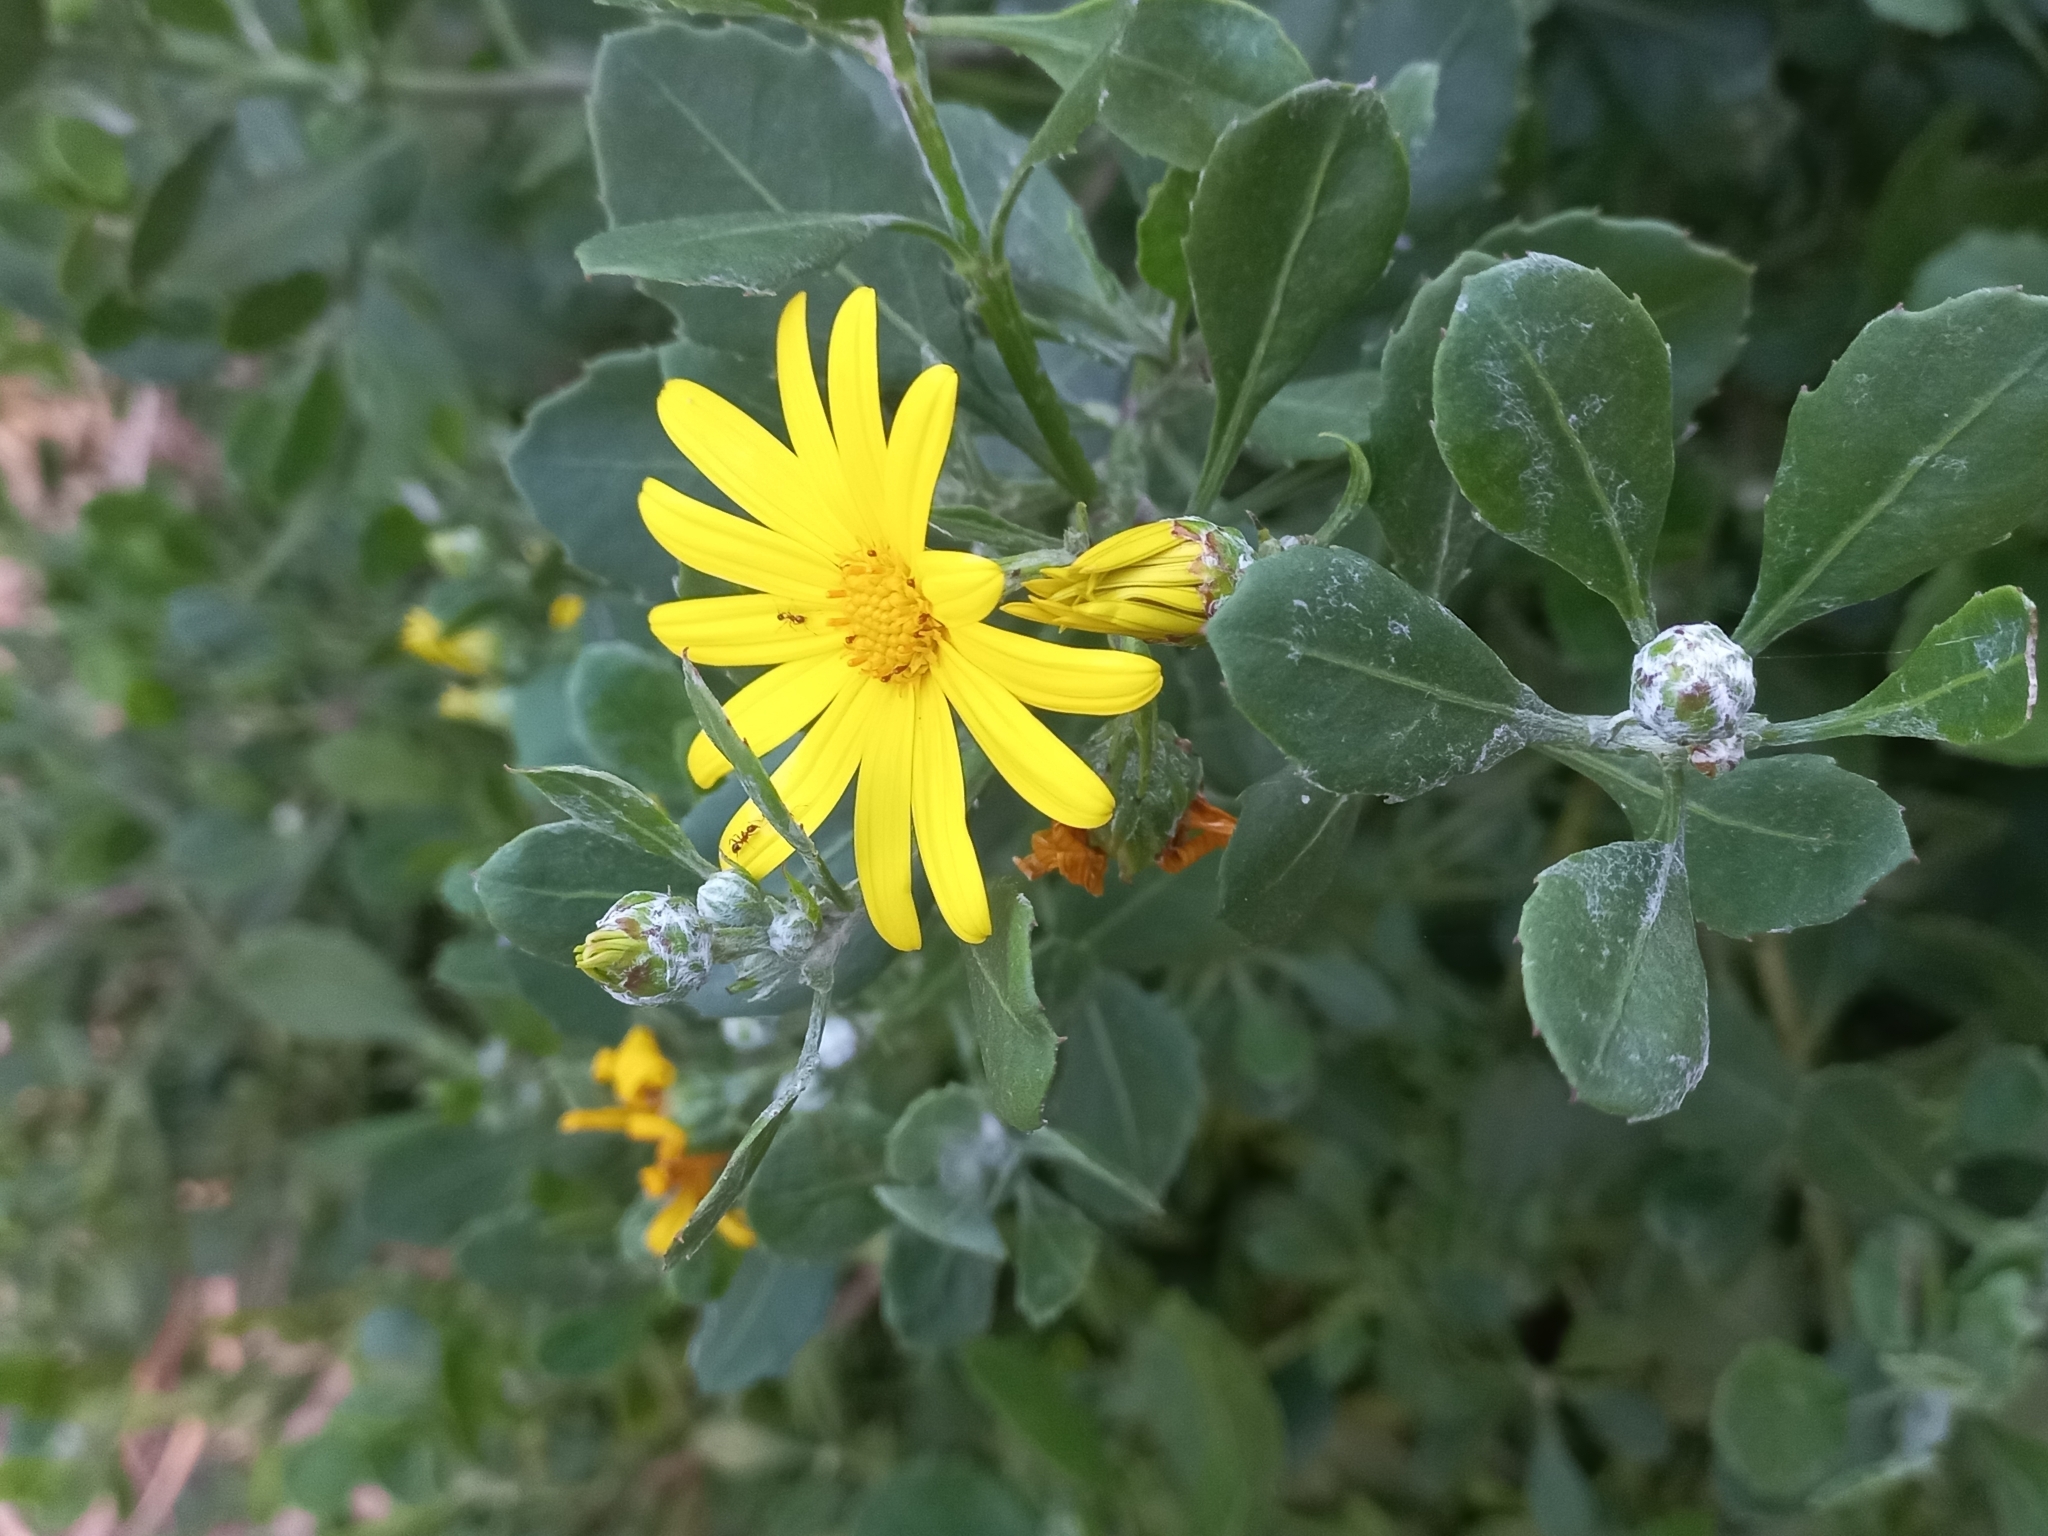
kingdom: Plantae
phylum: Tracheophyta
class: Magnoliopsida
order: Asterales
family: Asteraceae
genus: Osteospermum
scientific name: Osteospermum moniliferum
